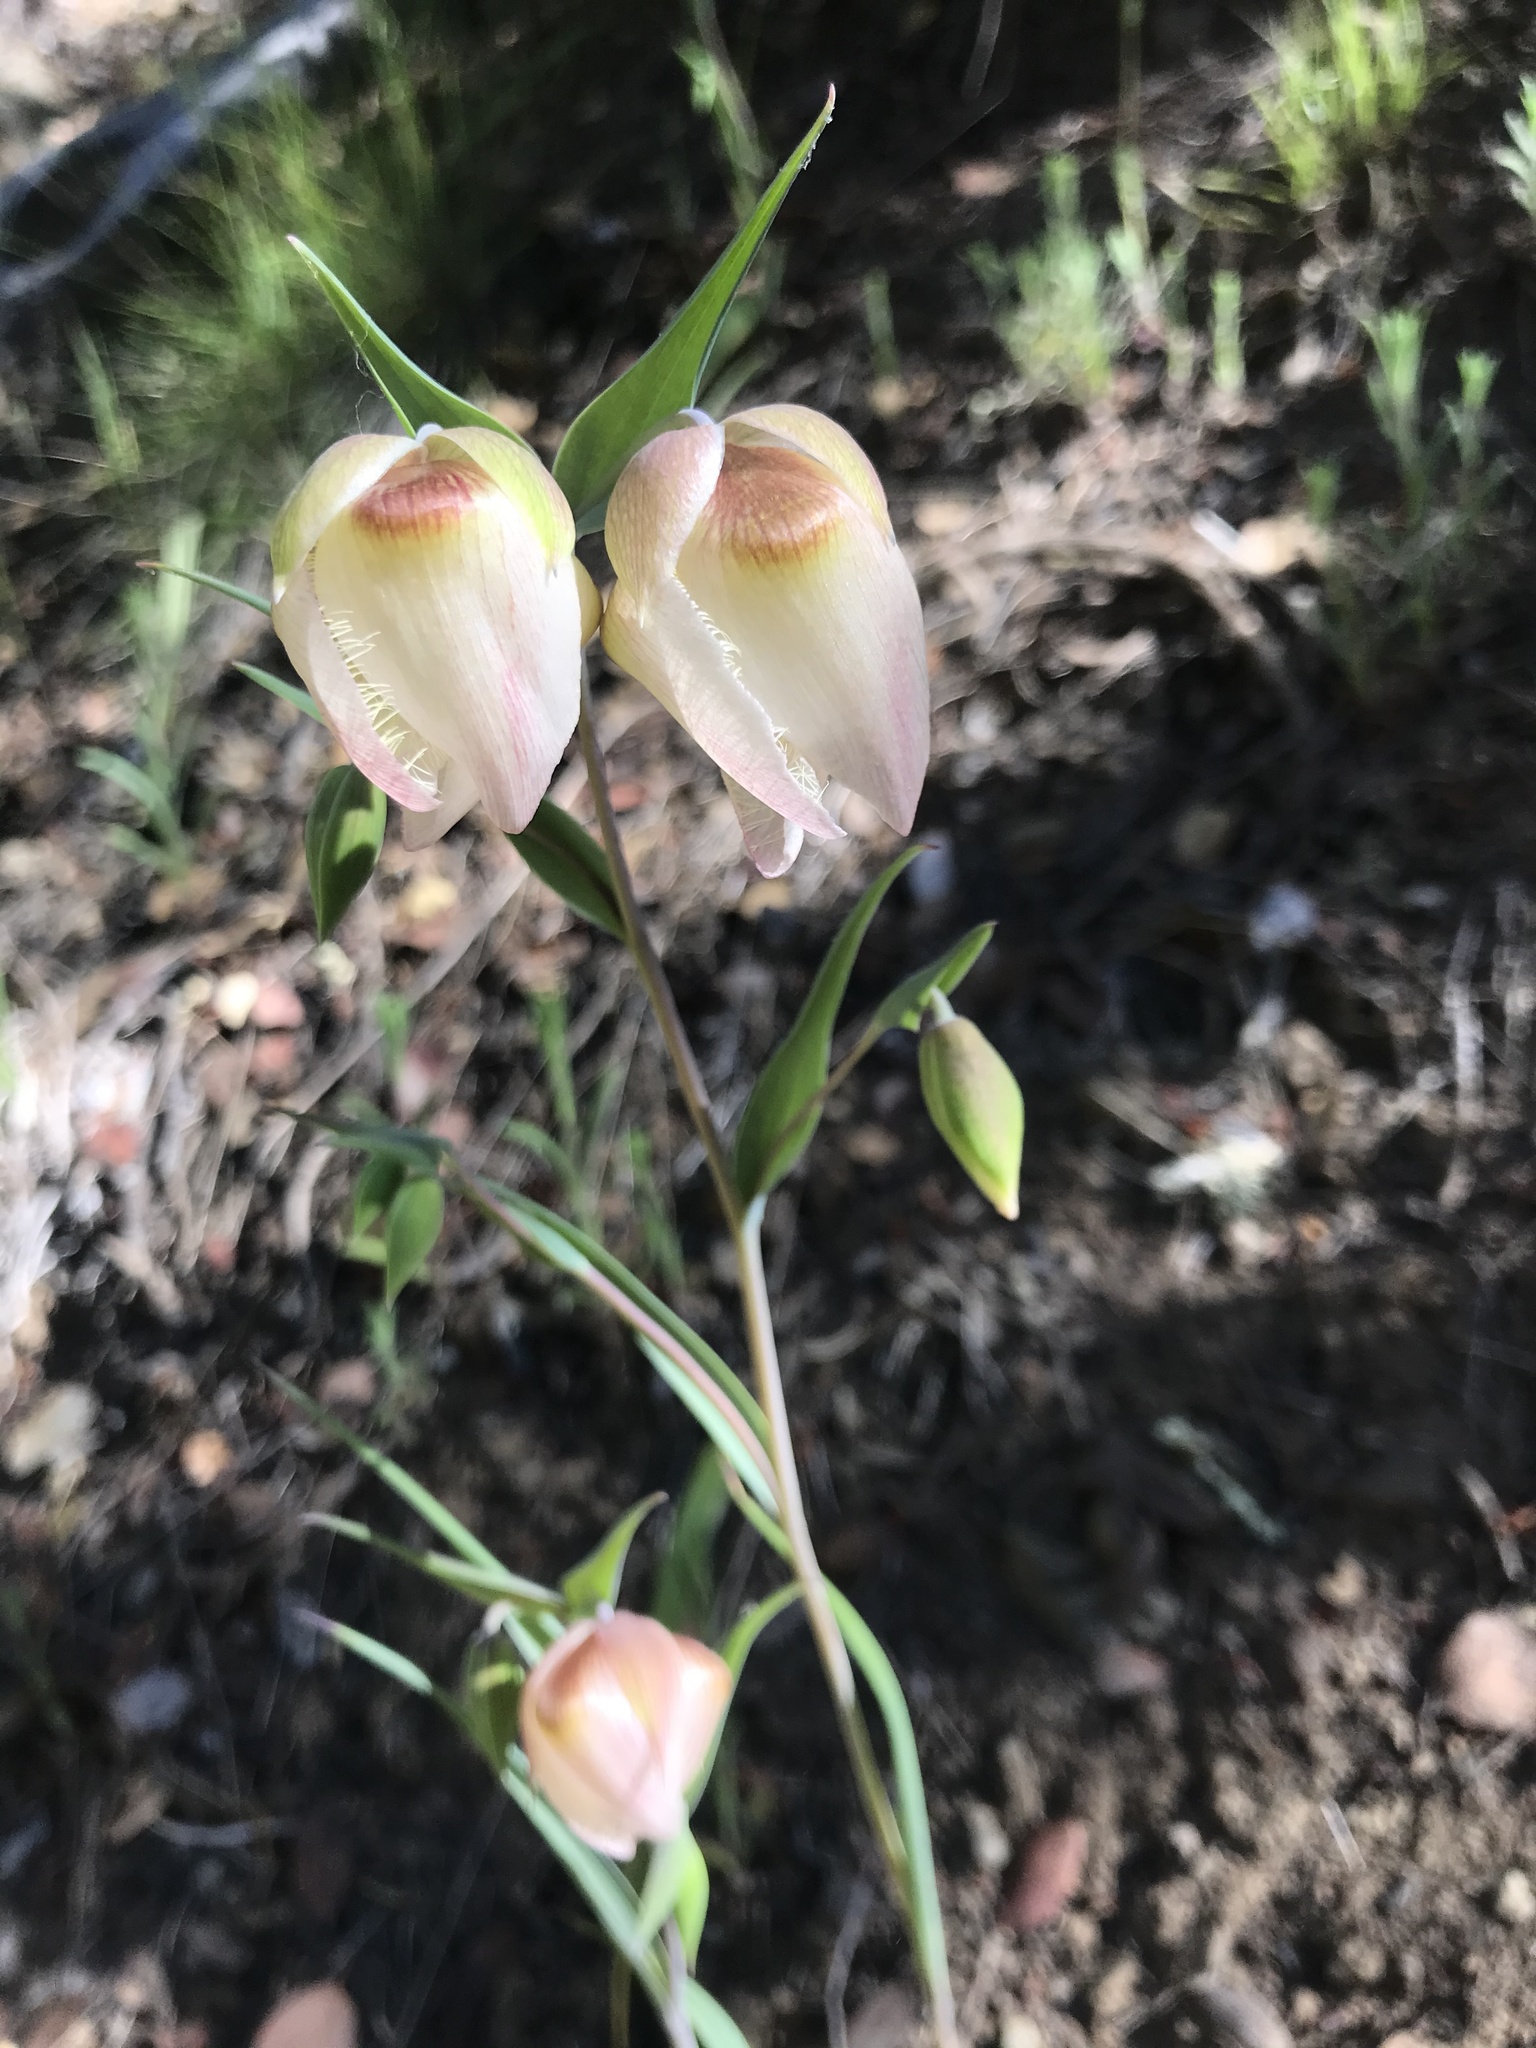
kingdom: Plantae
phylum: Tracheophyta
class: Liliopsida
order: Liliales
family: Liliaceae
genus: Calochortus
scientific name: Calochortus albus
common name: Fairy-lantern
